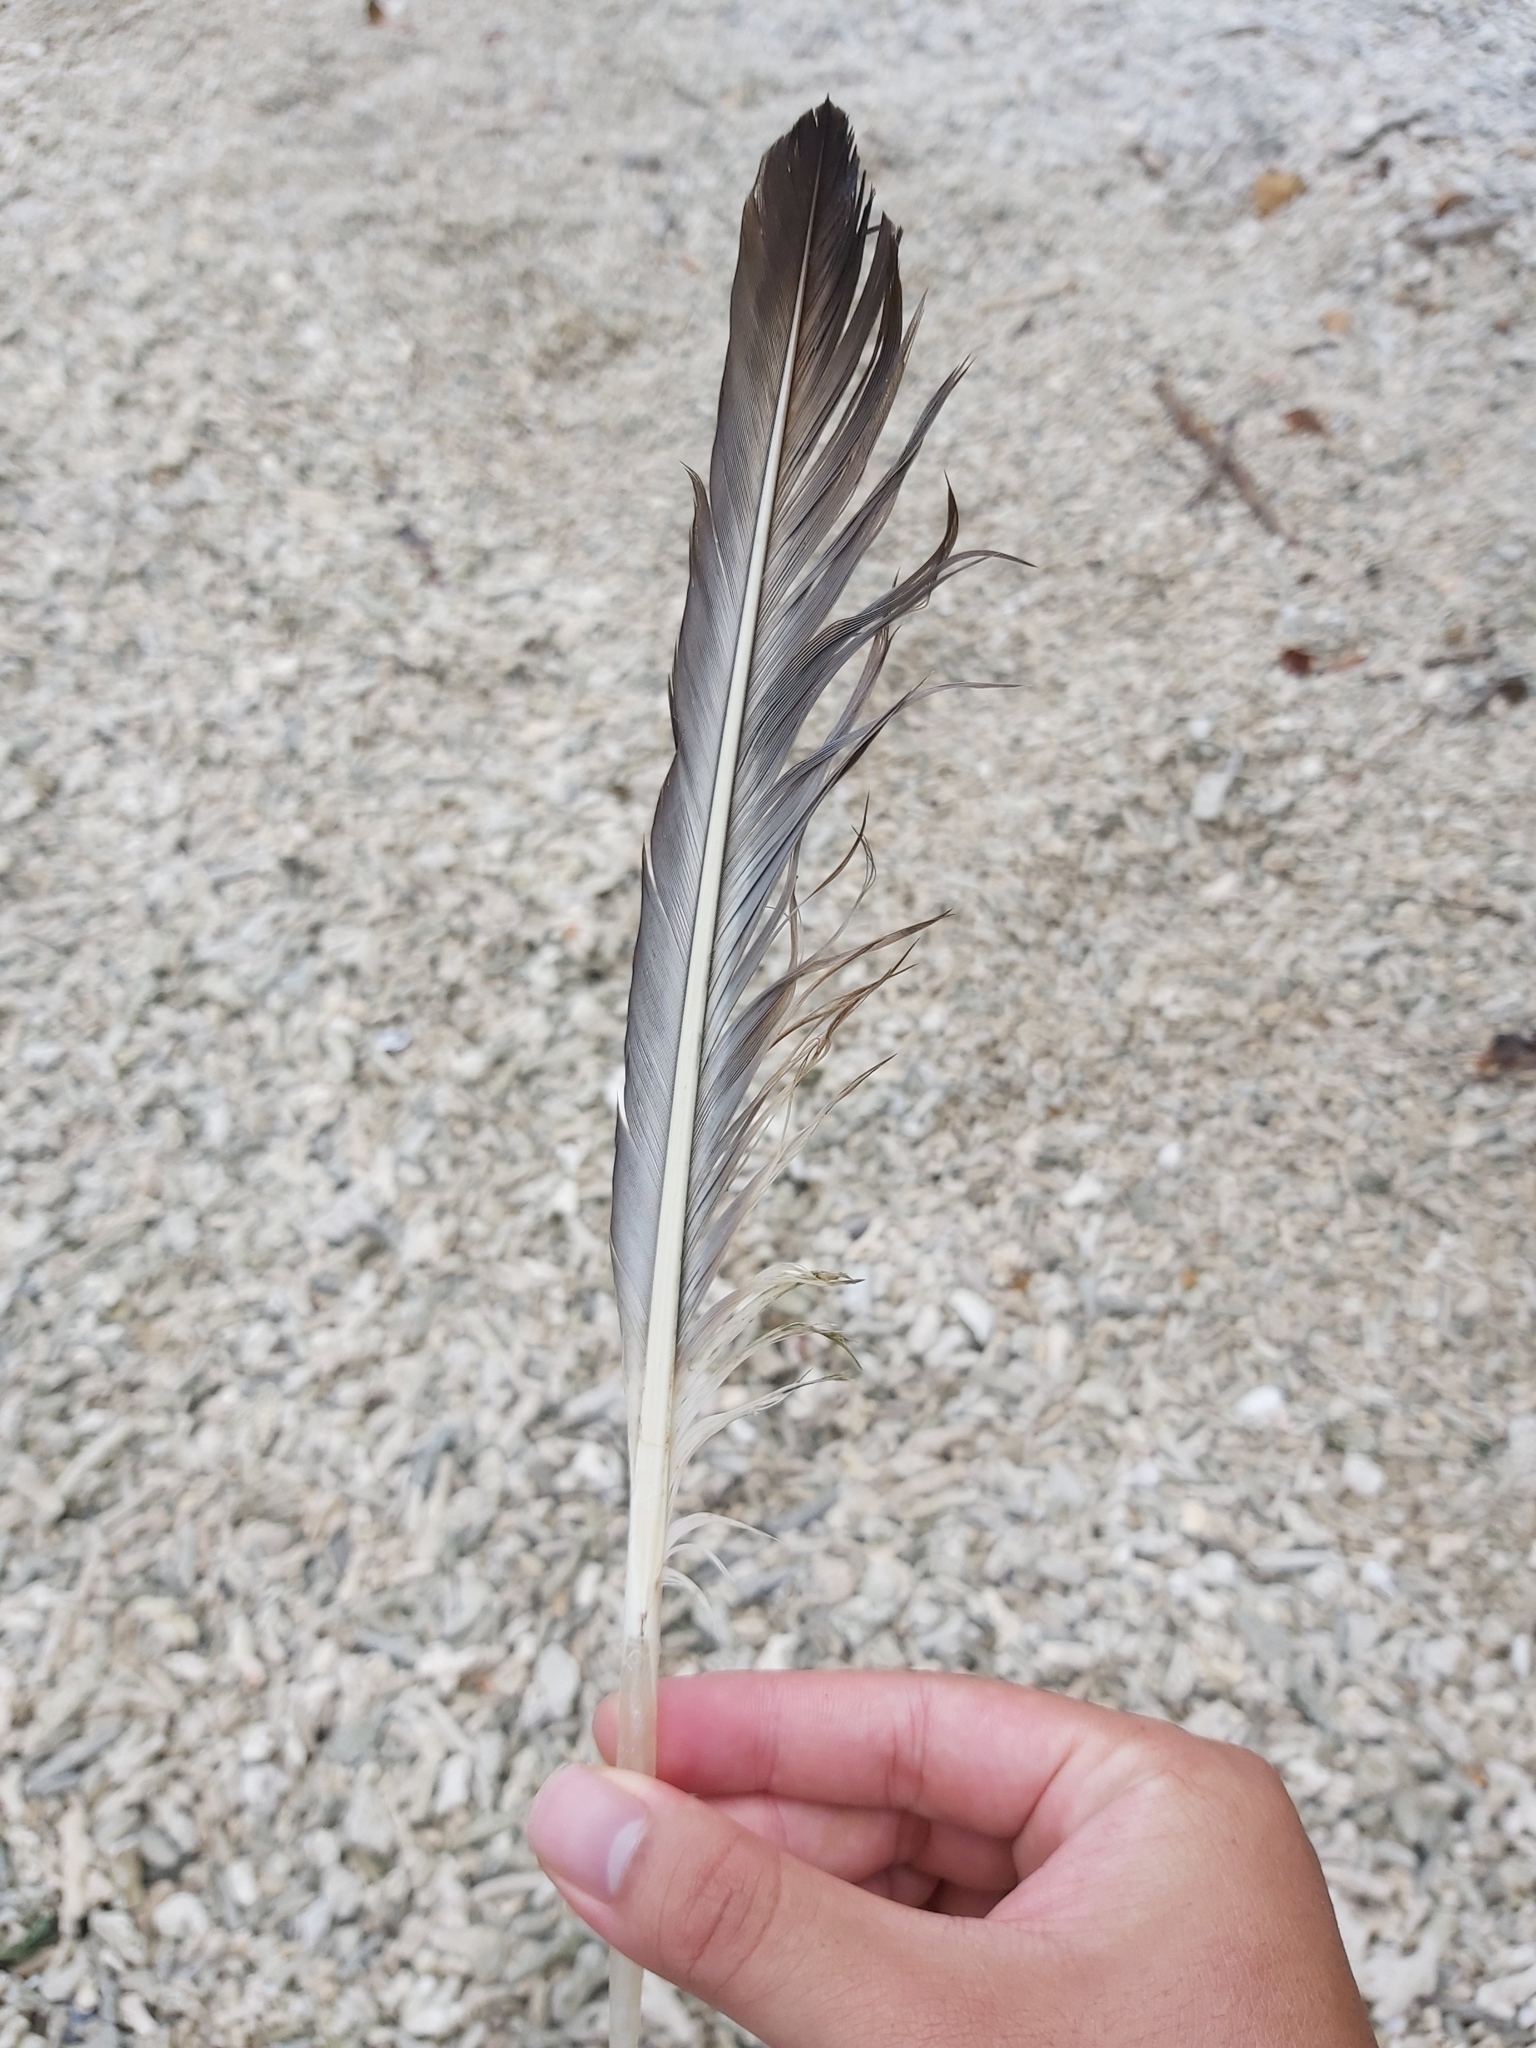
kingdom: Animalia
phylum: Chordata
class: Aves
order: Pelecaniformes
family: Pelecanidae
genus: Pelecanus
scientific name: Pelecanus conspicillatus
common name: Australian pelican
